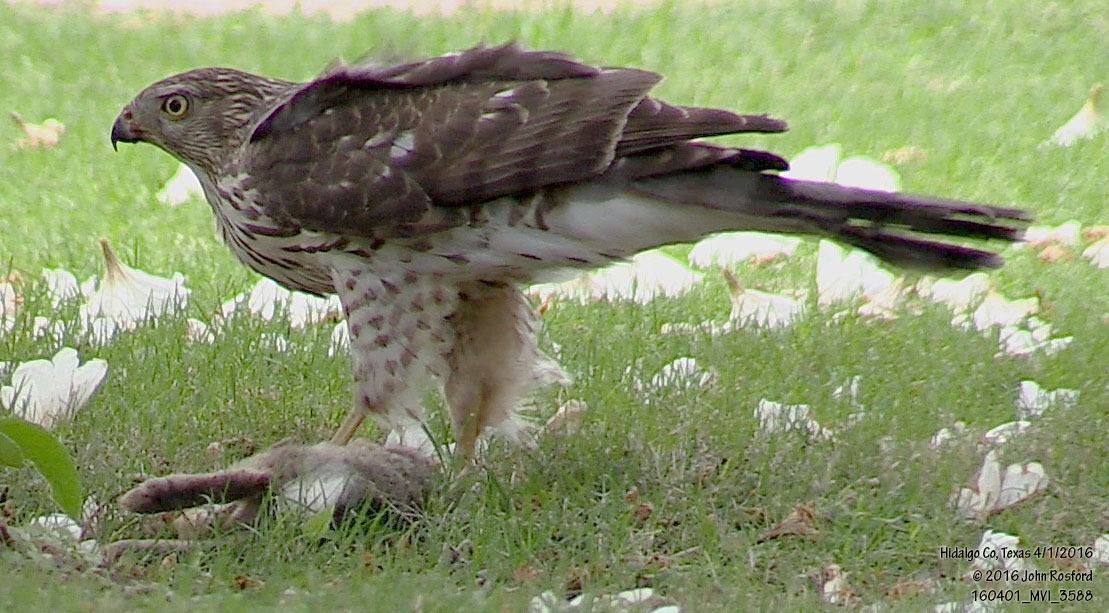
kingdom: Animalia
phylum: Chordata
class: Aves
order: Accipitriformes
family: Accipitridae
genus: Accipiter
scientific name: Accipiter cooperii
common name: Cooper's hawk
